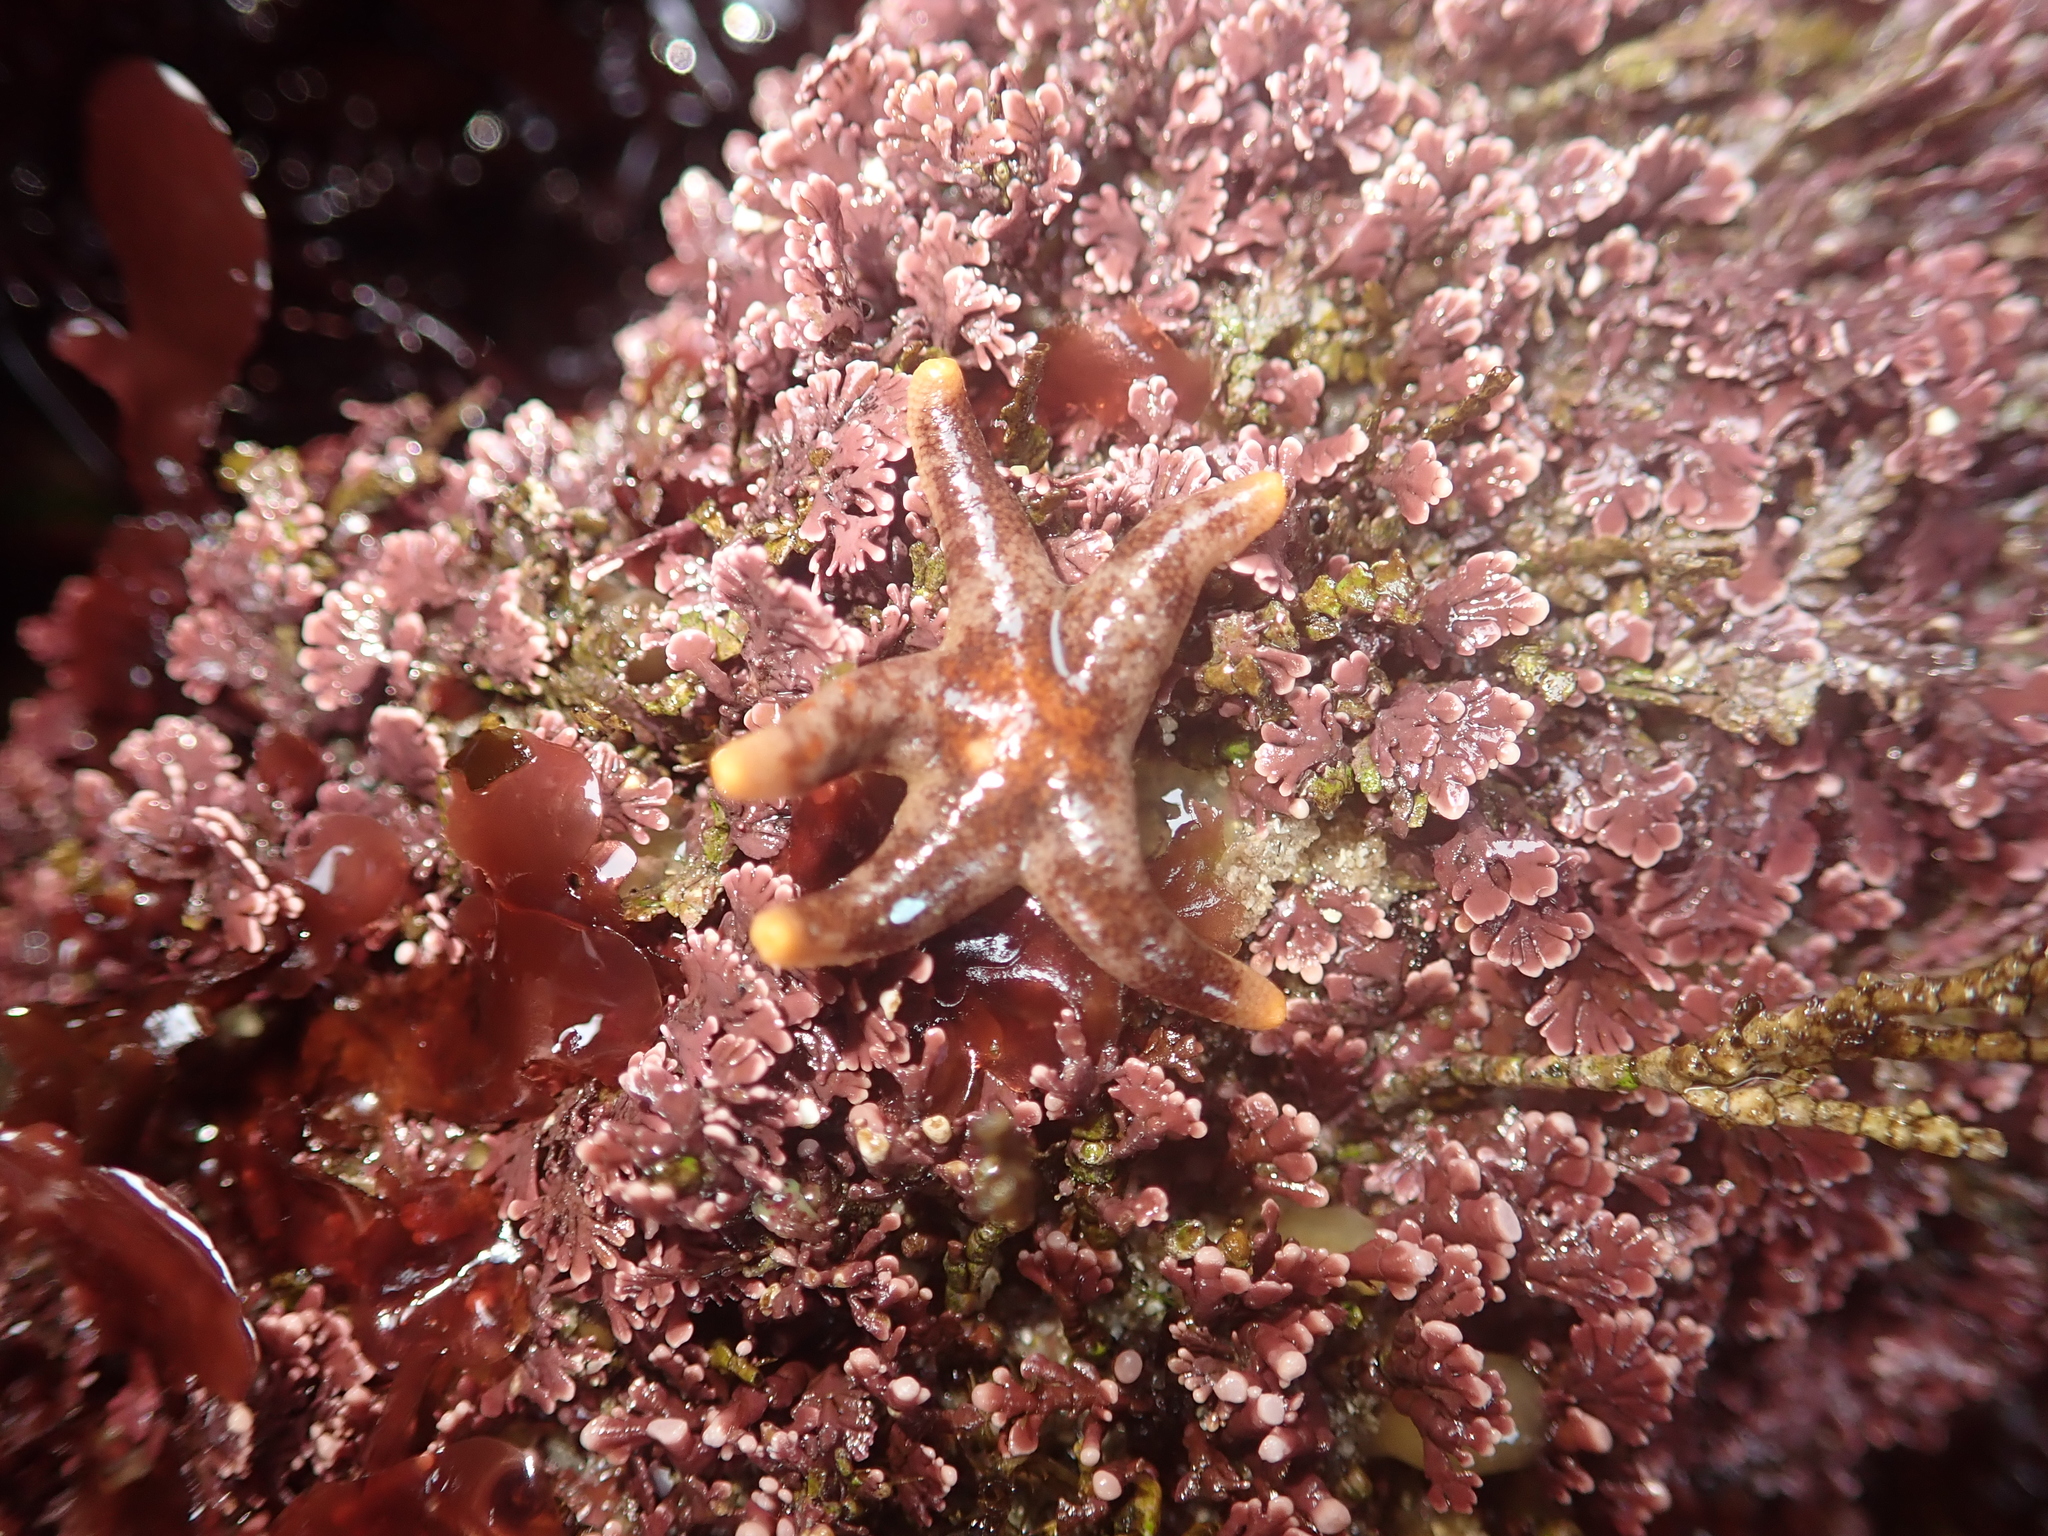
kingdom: Animalia
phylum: Echinodermata
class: Asteroidea
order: Spinulosida
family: Echinasteridae
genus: Henricia
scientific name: Henricia pumila
